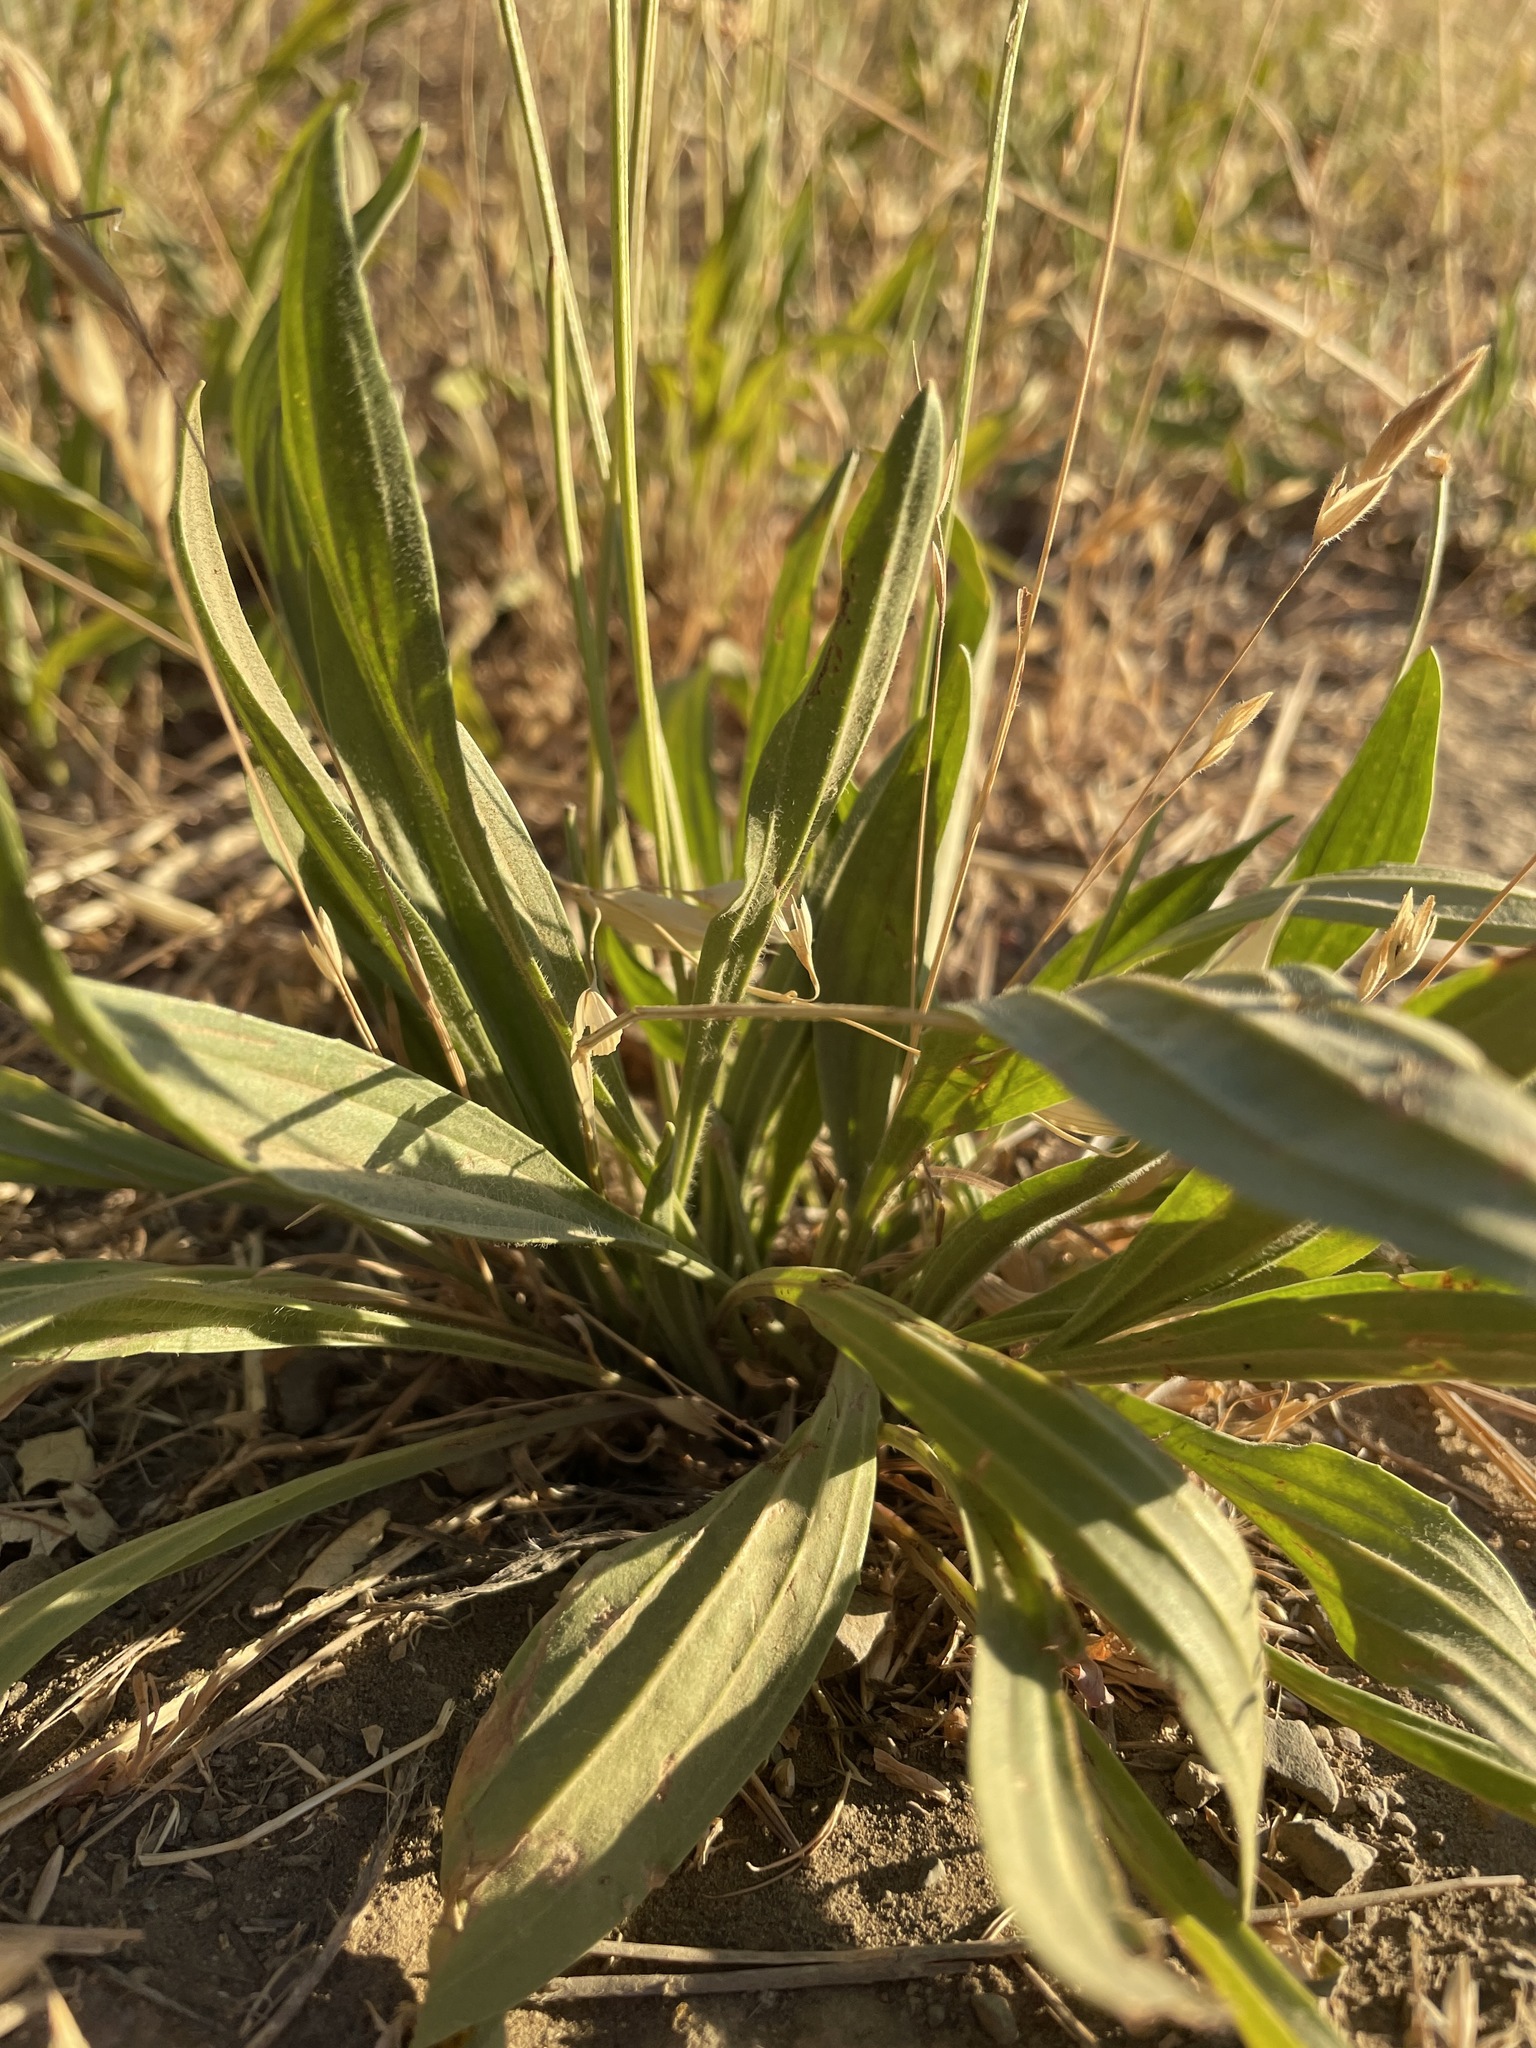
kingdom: Plantae
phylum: Tracheophyta
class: Magnoliopsida
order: Lamiales
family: Plantaginaceae
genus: Plantago
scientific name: Plantago lanceolata
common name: Ribwort plantain
